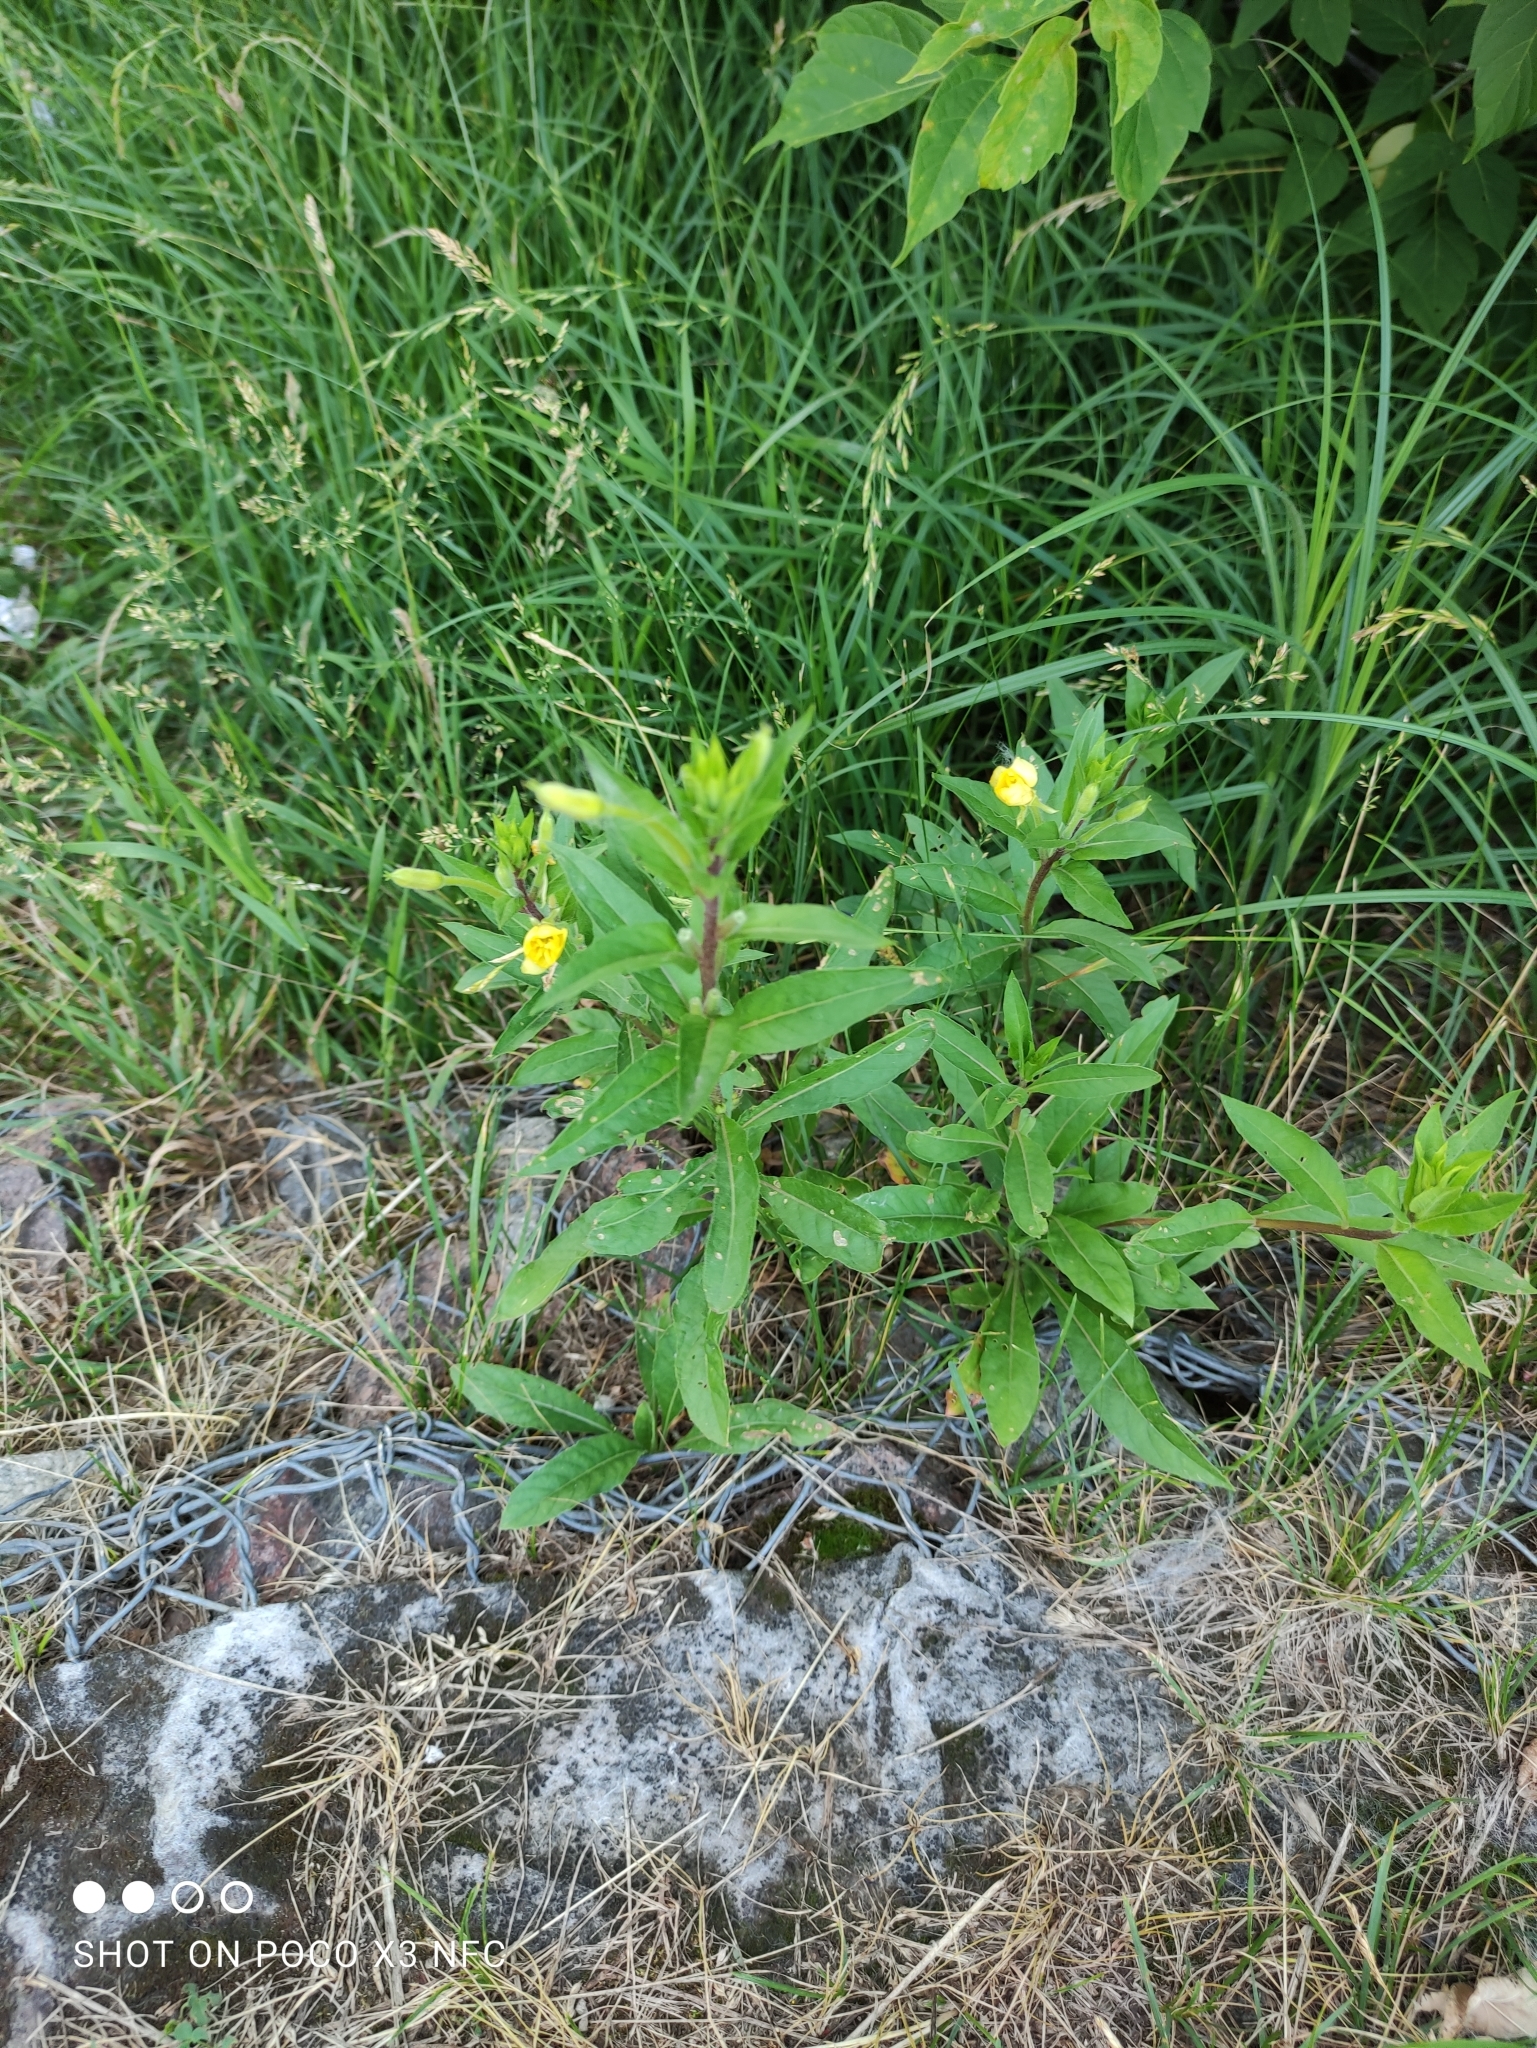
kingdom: Plantae
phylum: Tracheophyta
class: Magnoliopsida
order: Myrtales
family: Onagraceae
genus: Oenothera
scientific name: Oenothera rubricaulis
